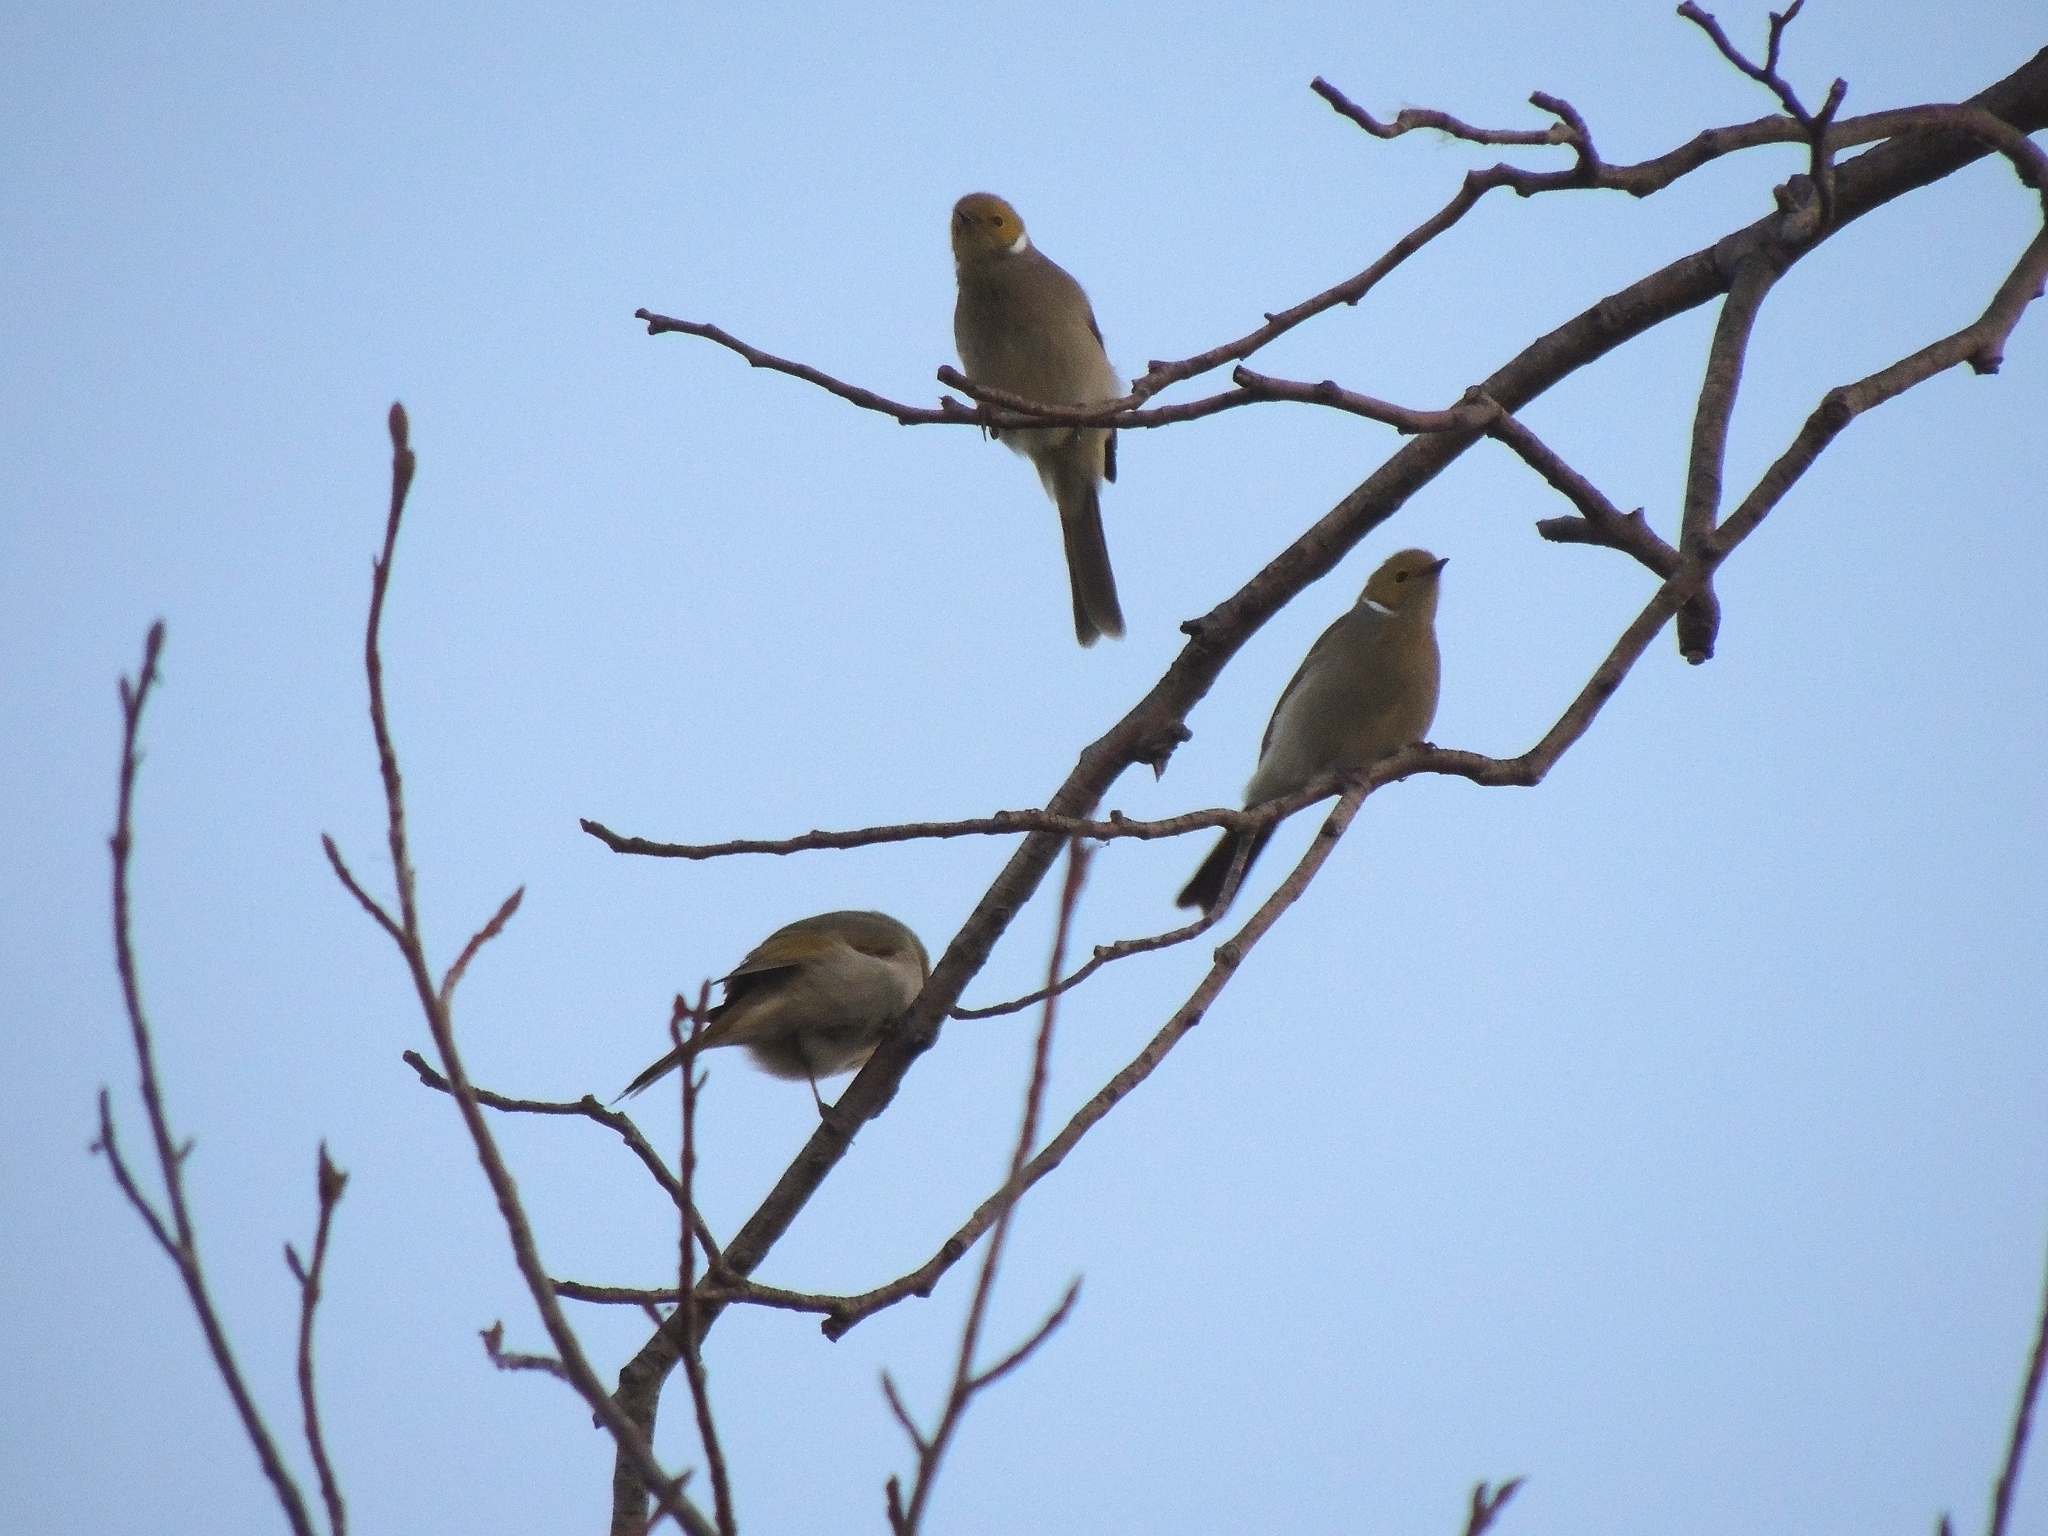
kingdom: Animalia
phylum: Chordata
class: Aves
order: Passeriformes
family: Meliphagidae
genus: Ptilotula
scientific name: Ptilotula penicillata
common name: White-plumed honeyeater
